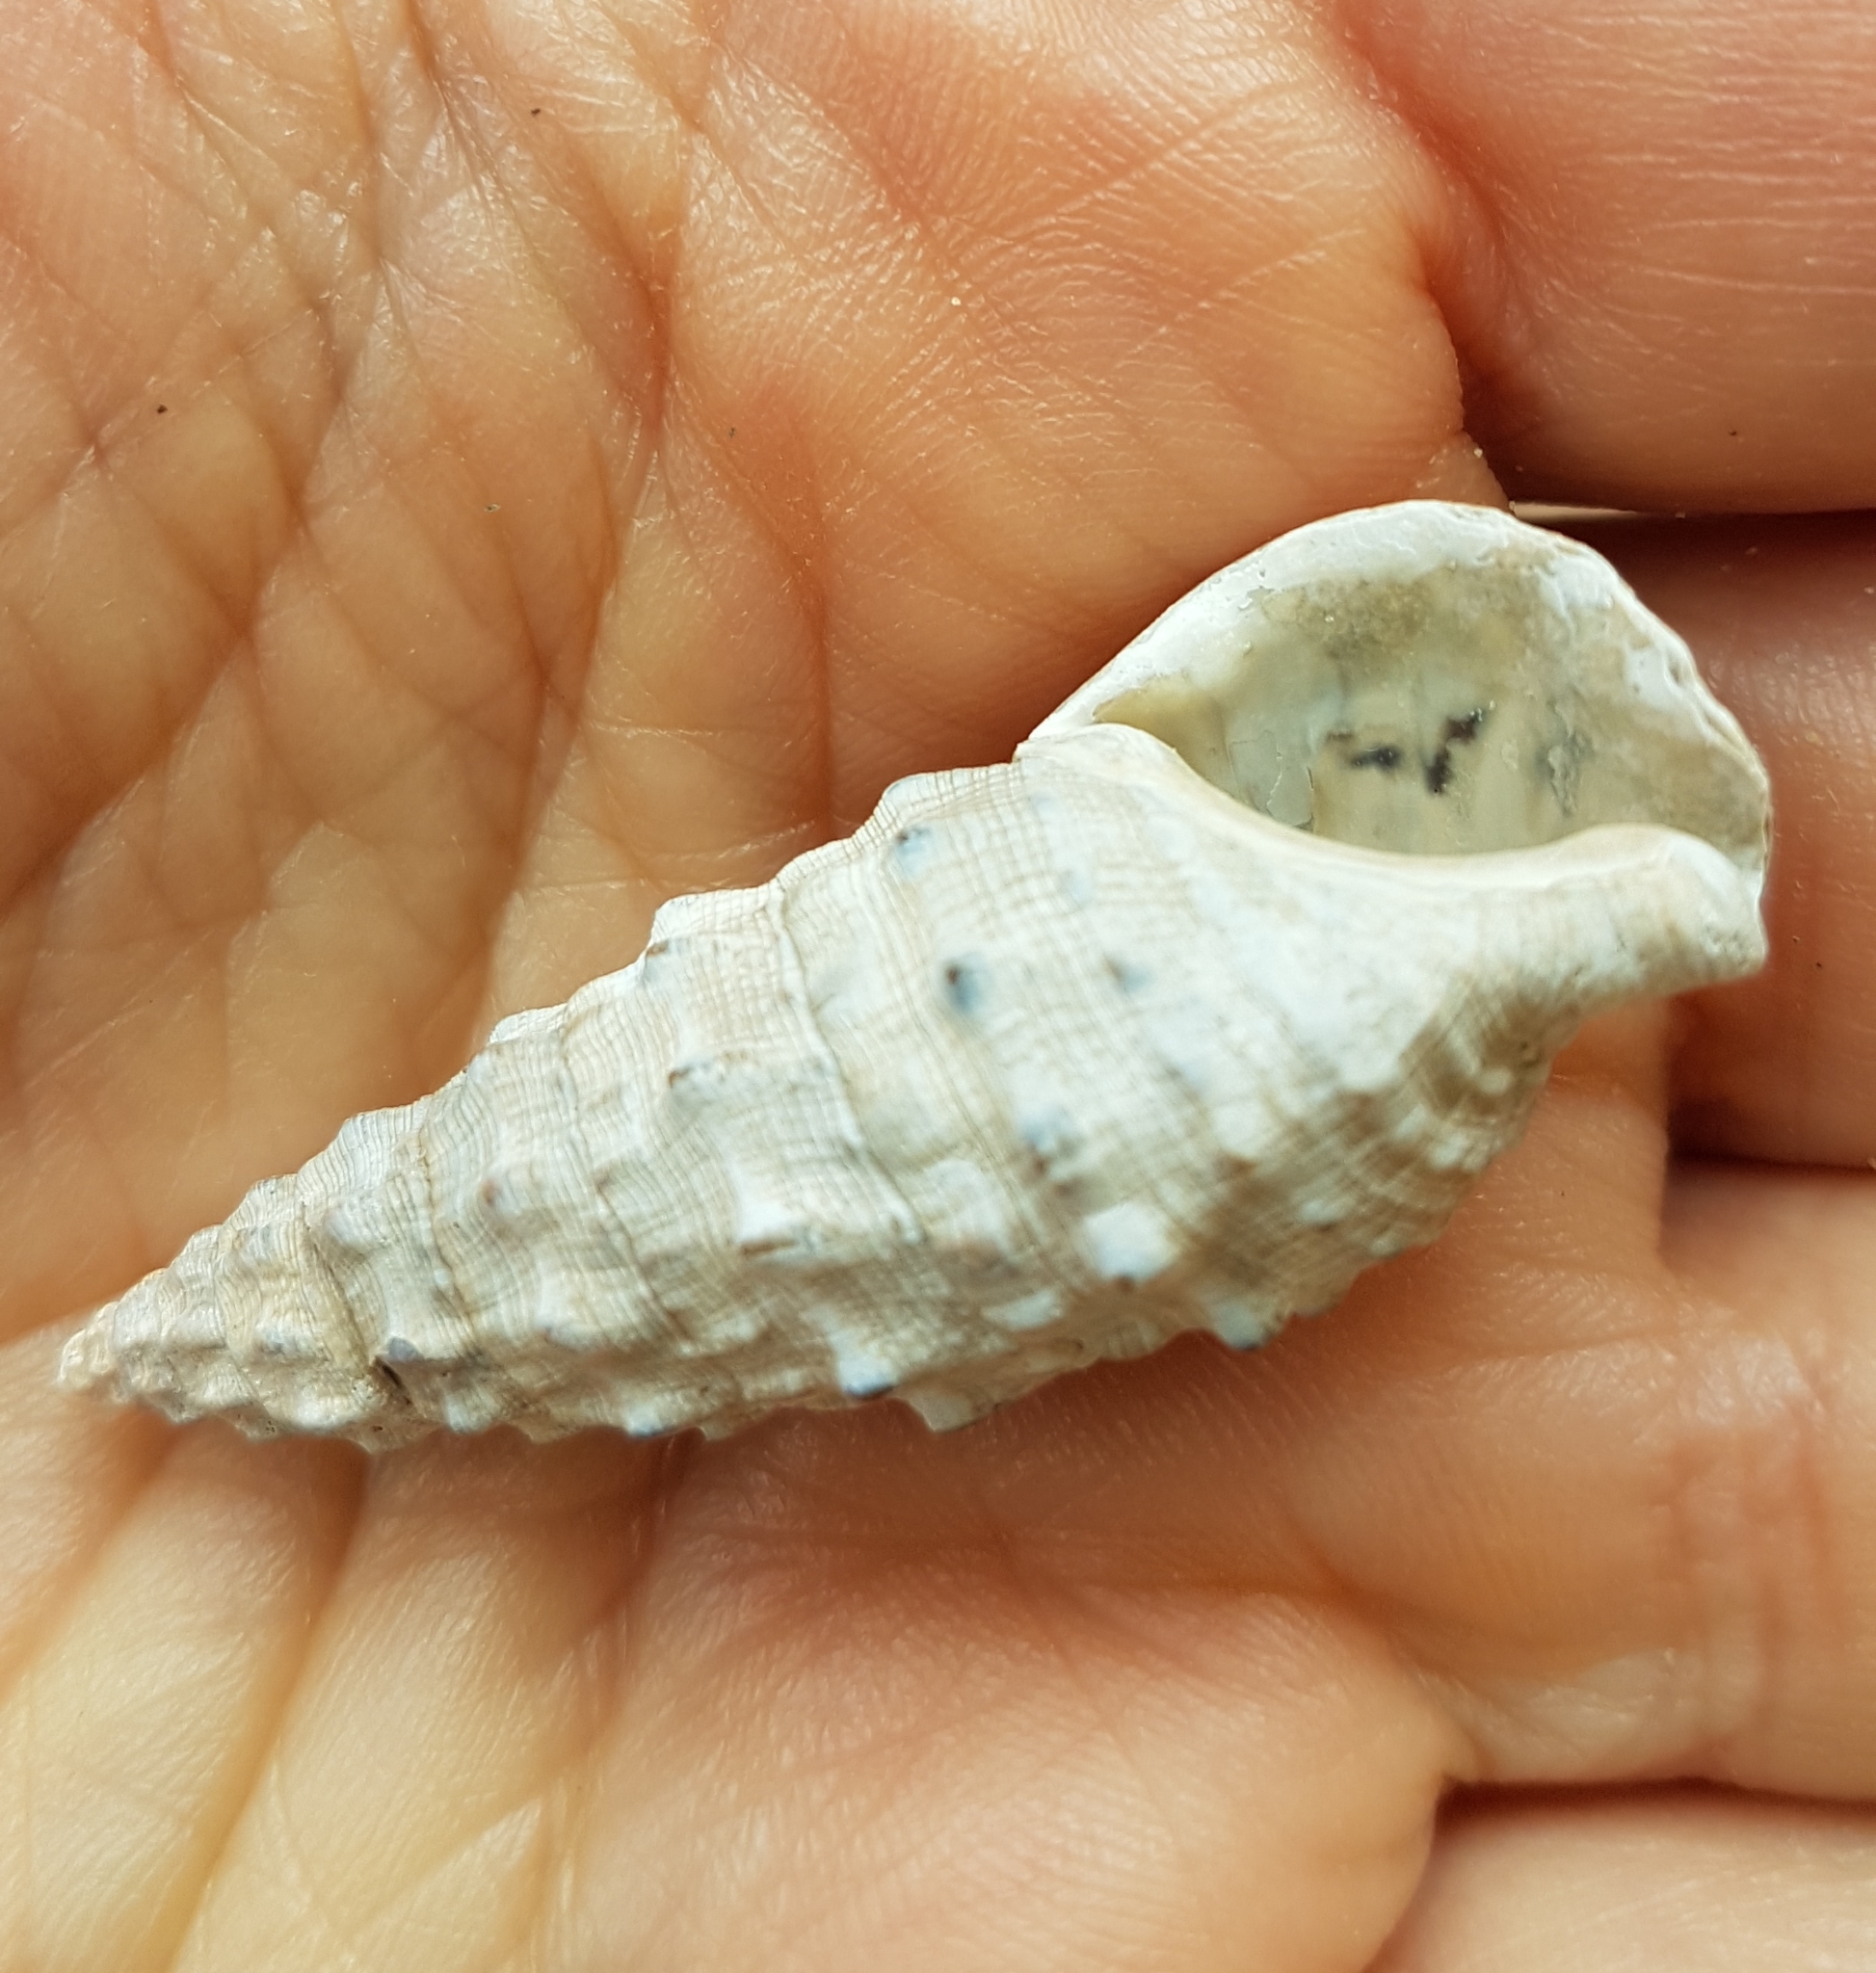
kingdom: Animalia
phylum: Mollusca
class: Gastropoda
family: Cerithiidae
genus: Cerithium
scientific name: Cerithium vulgatum
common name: European cerith
